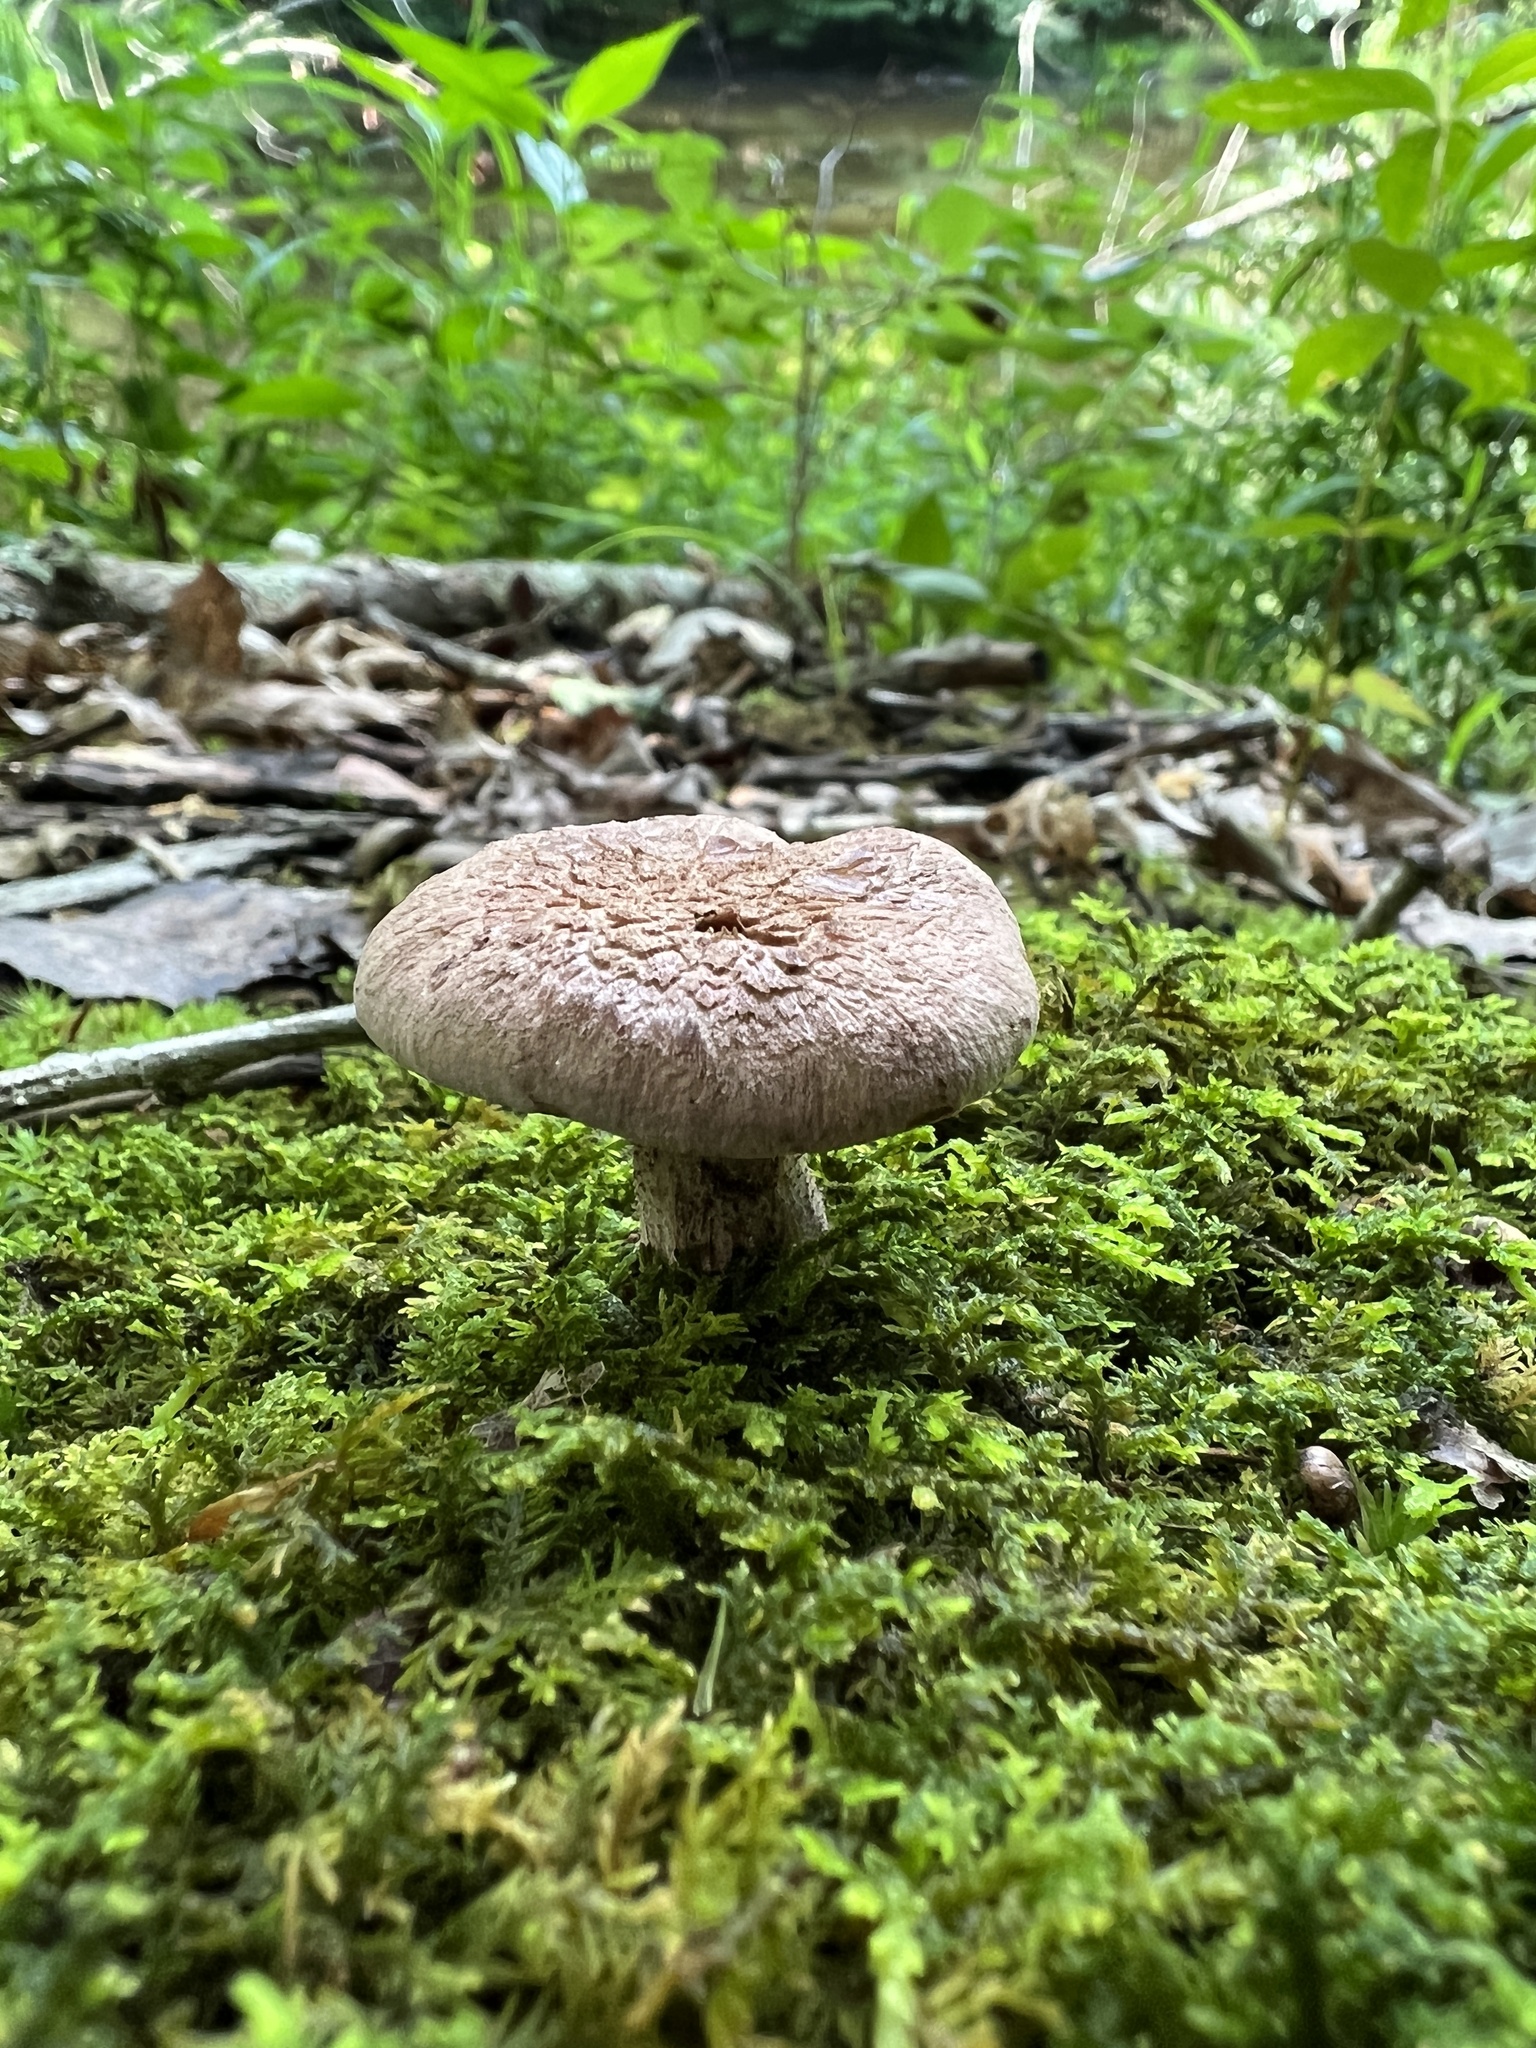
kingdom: Fungi
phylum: Basidiomycota
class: Agaricomycetes
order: Thelephorales
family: Bankeraceae
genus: Hydnellum
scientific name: Hydnellum scabrosum
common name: Bitter tooth
